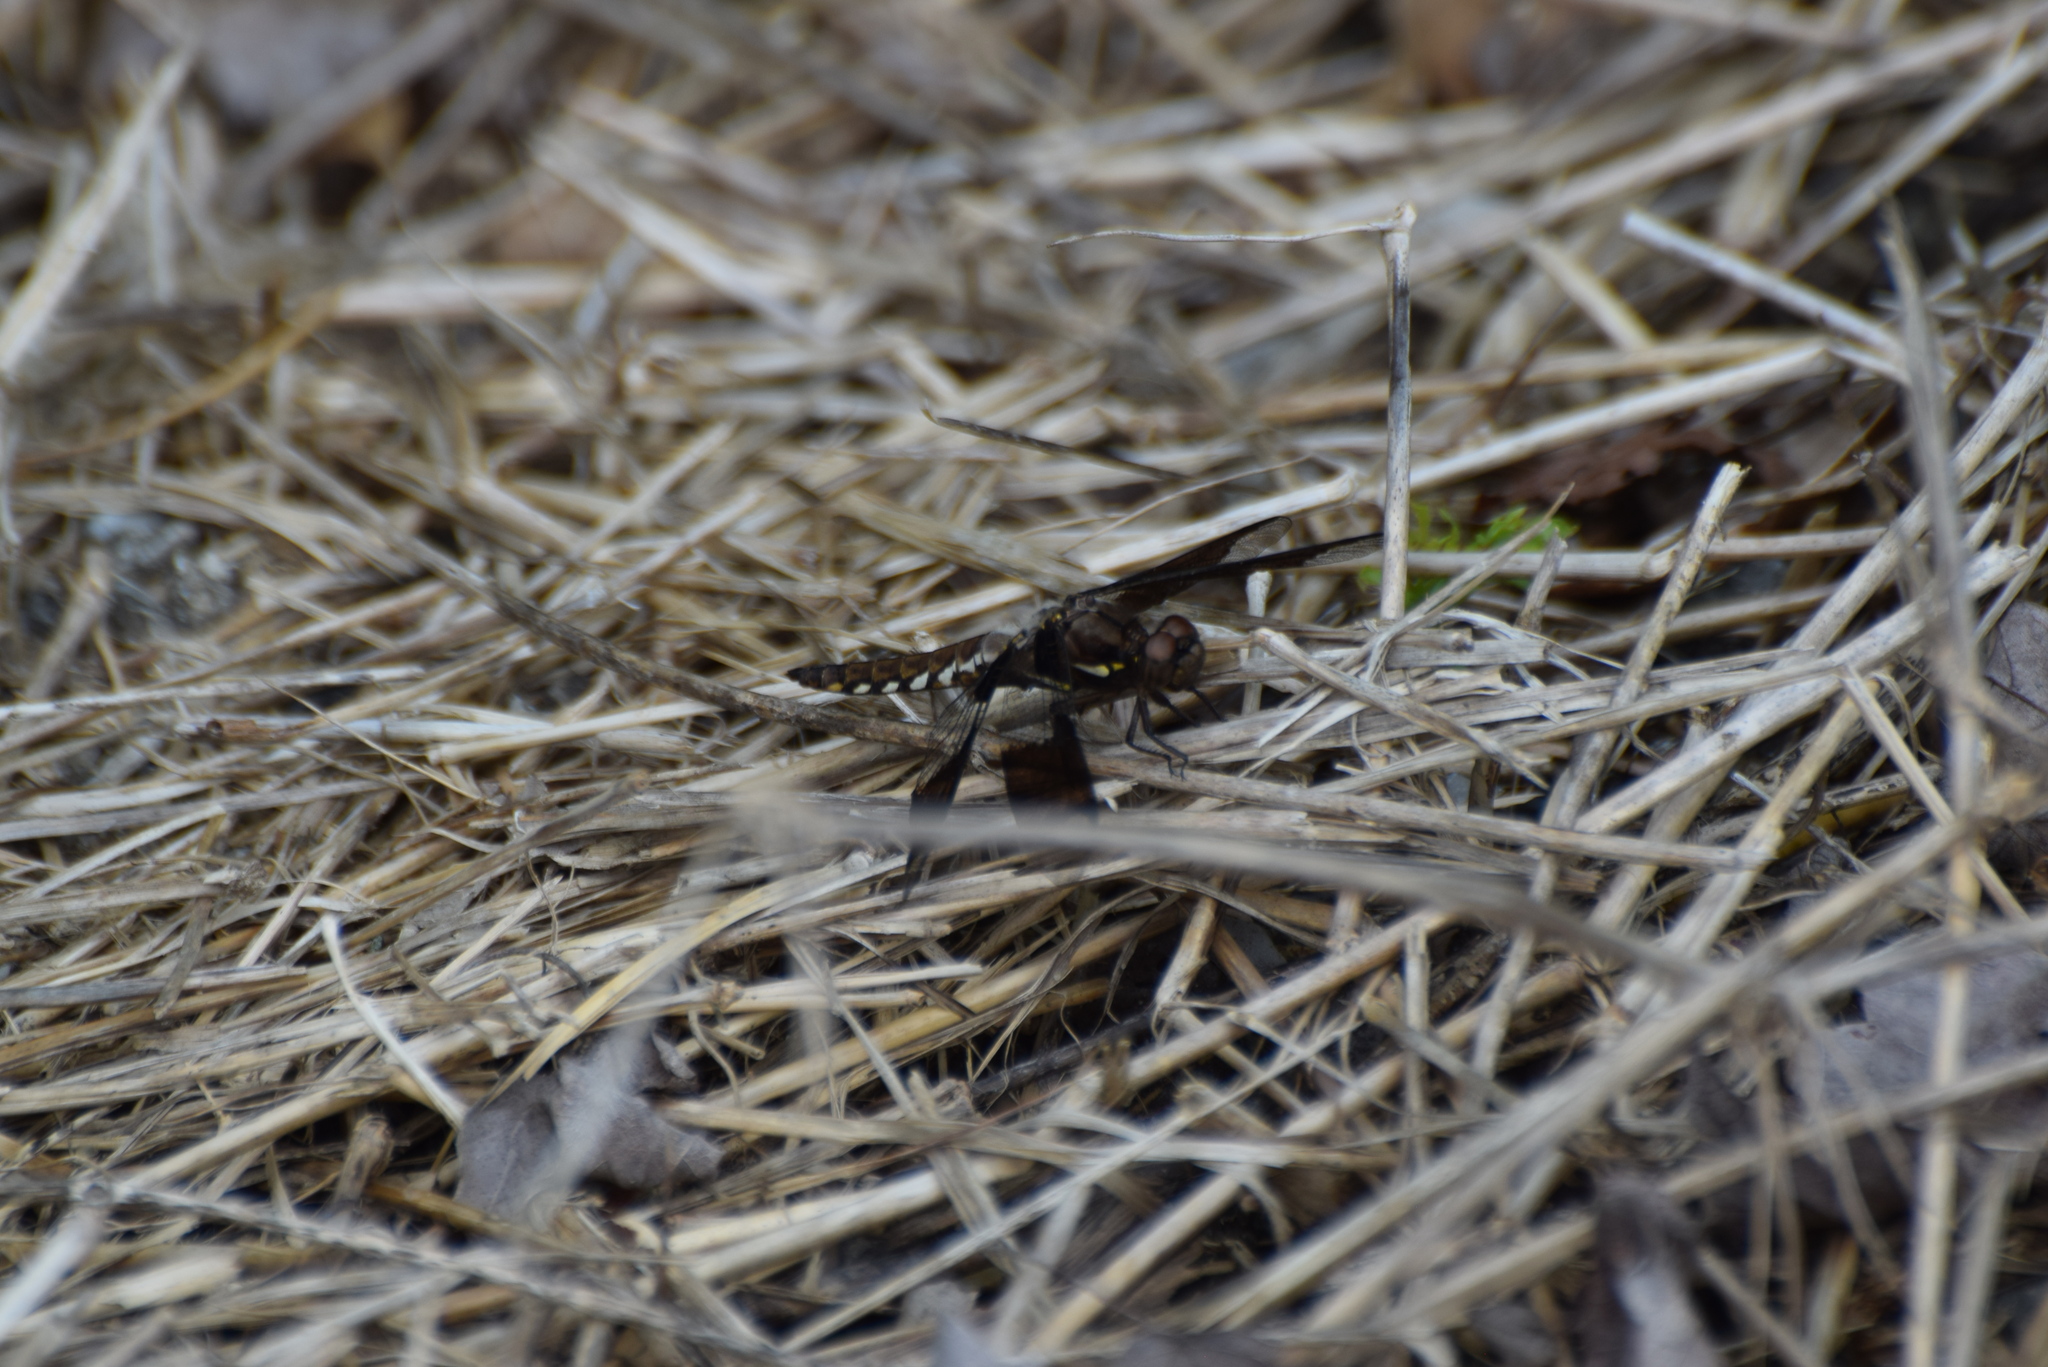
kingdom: Animalia
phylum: Arthropoda
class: Insecta
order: Odonata
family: Libellulidae
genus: Plathemis
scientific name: Plathemis lydia
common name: Common whitetail
